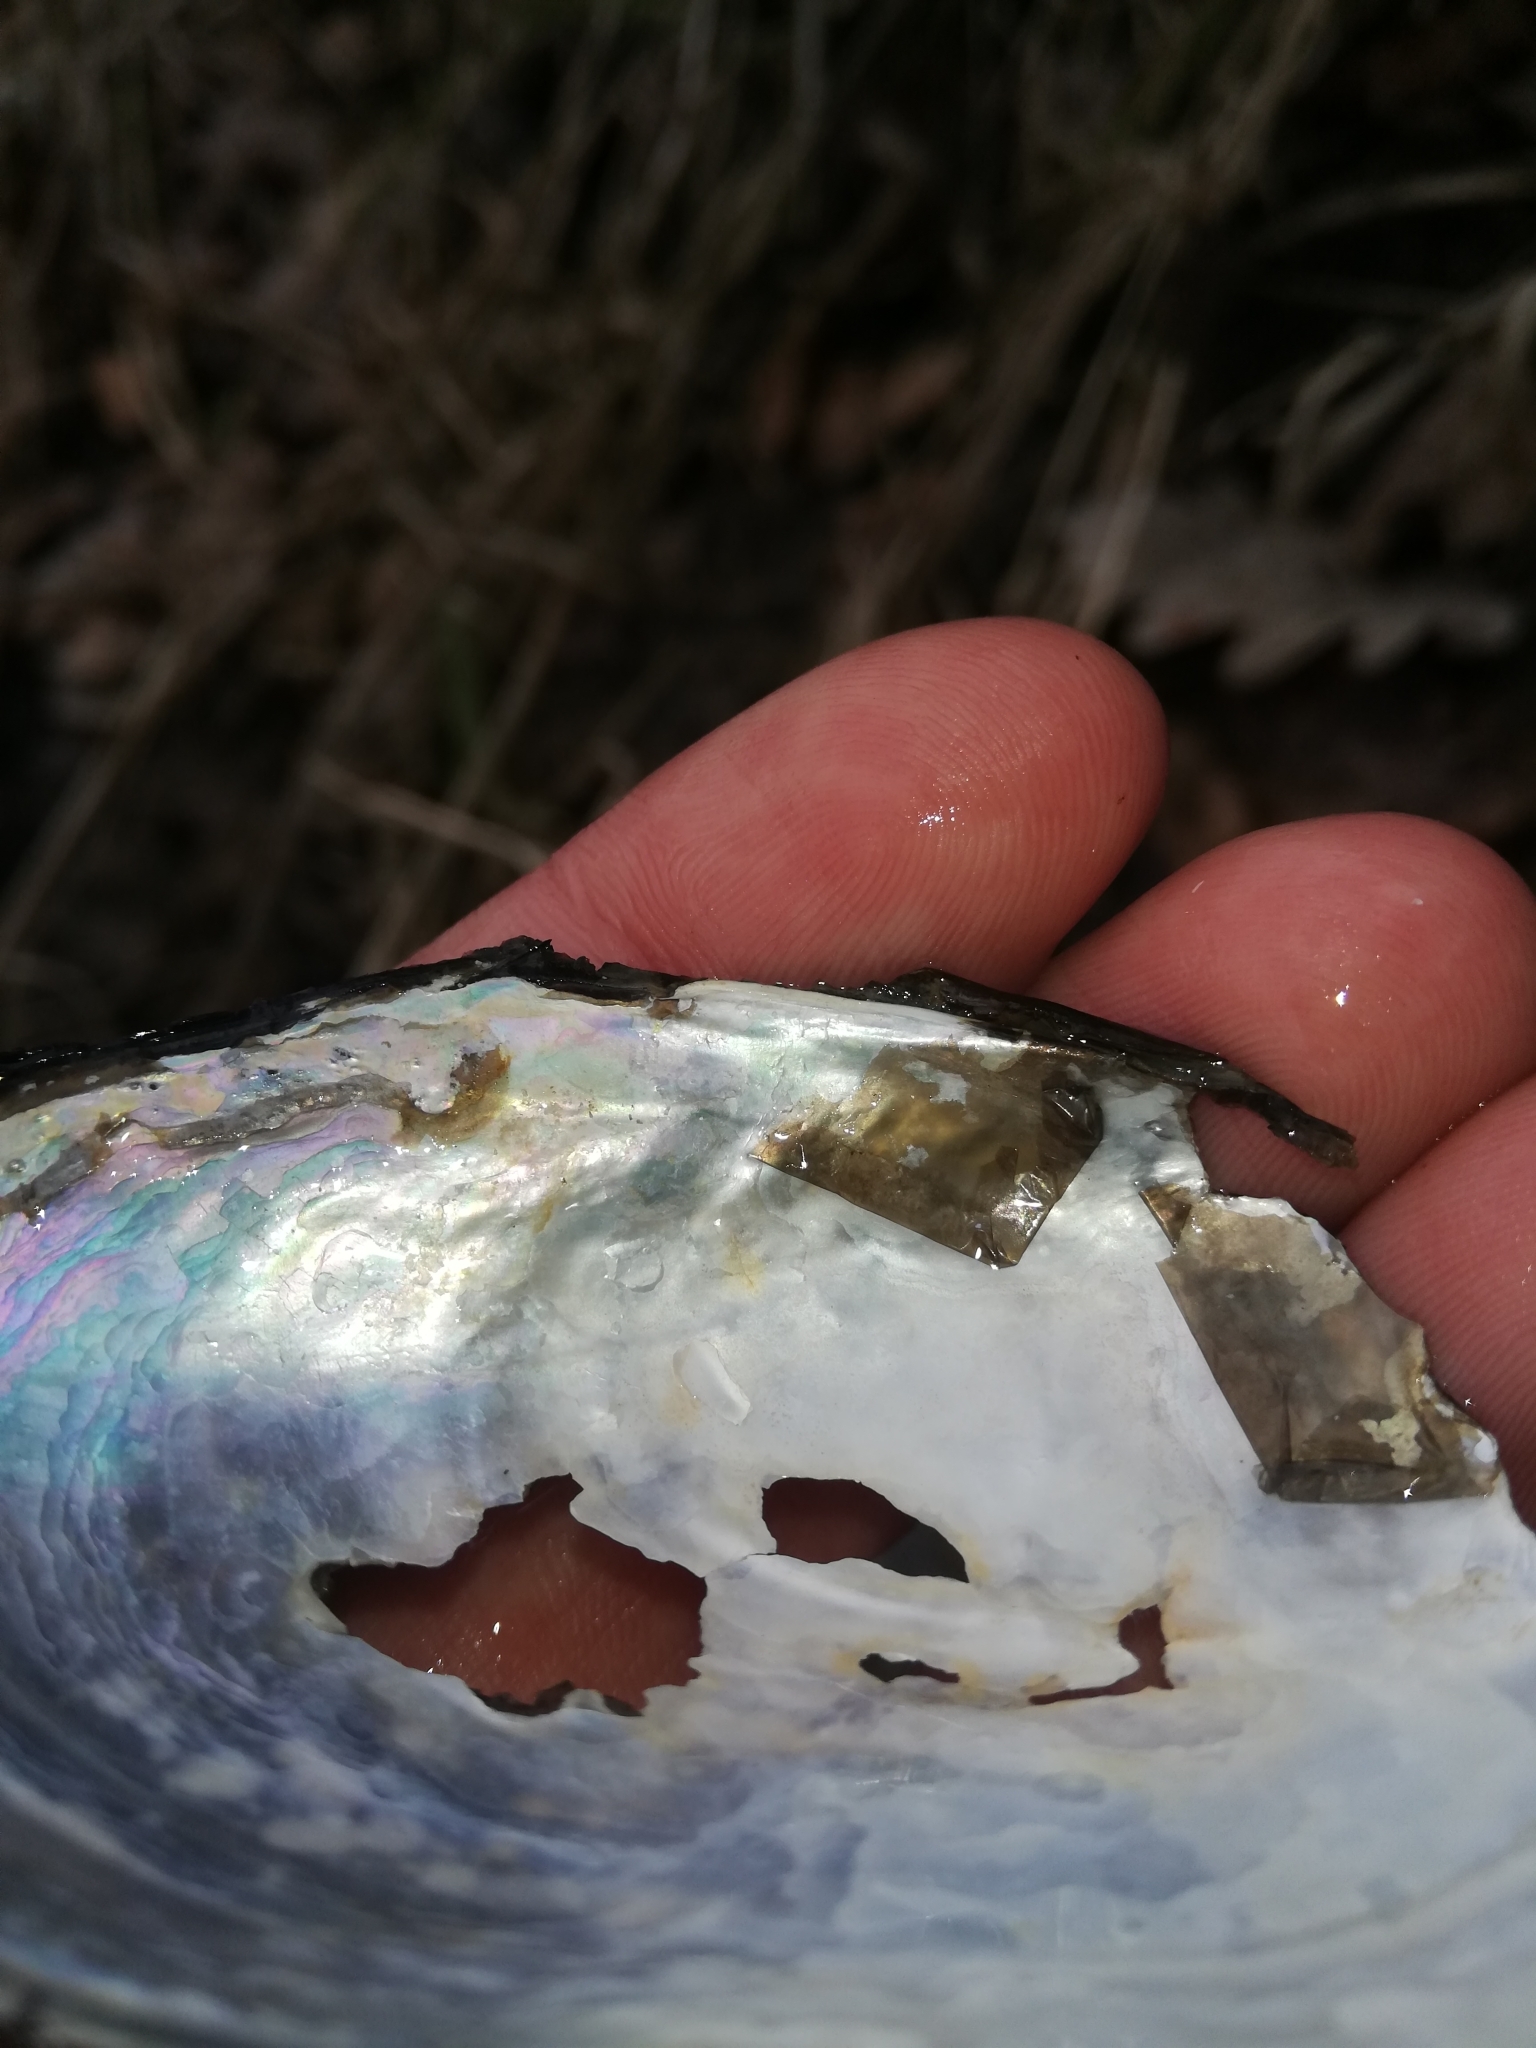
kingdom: Animalia
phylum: Mollusca
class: Bivalvia
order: Unionida
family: Unionidae
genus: Anodonta
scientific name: Anodonta anatina
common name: Duck mussel
